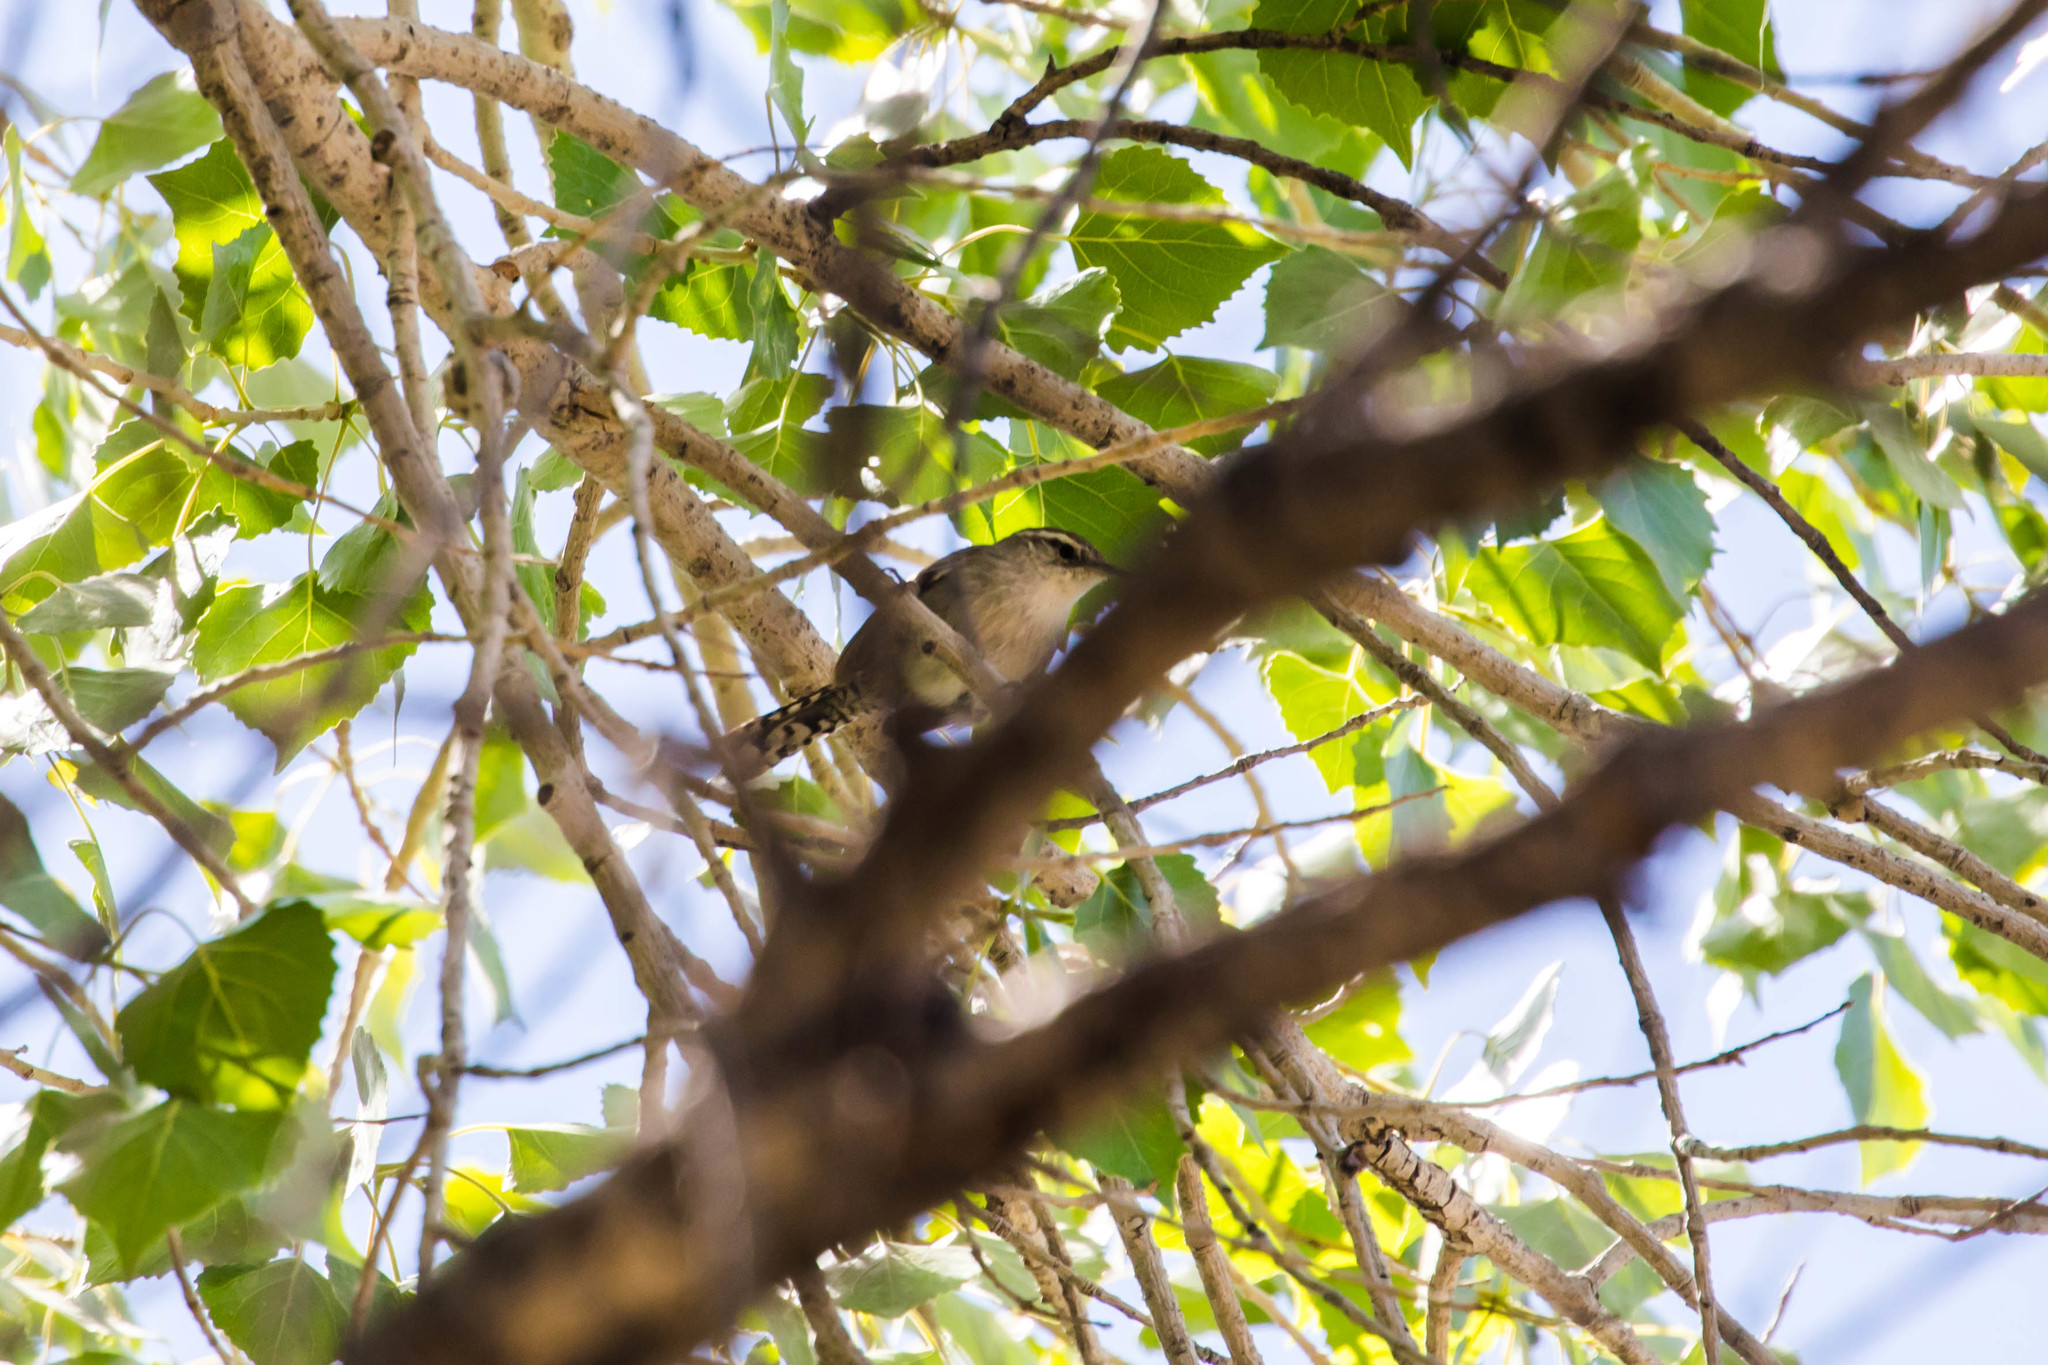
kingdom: Animalia
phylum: Chordata
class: Aves
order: Passeriformes
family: Troglodytidae
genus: Thryomanes
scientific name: Thryomanes bewickii
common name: Bewick's wren
